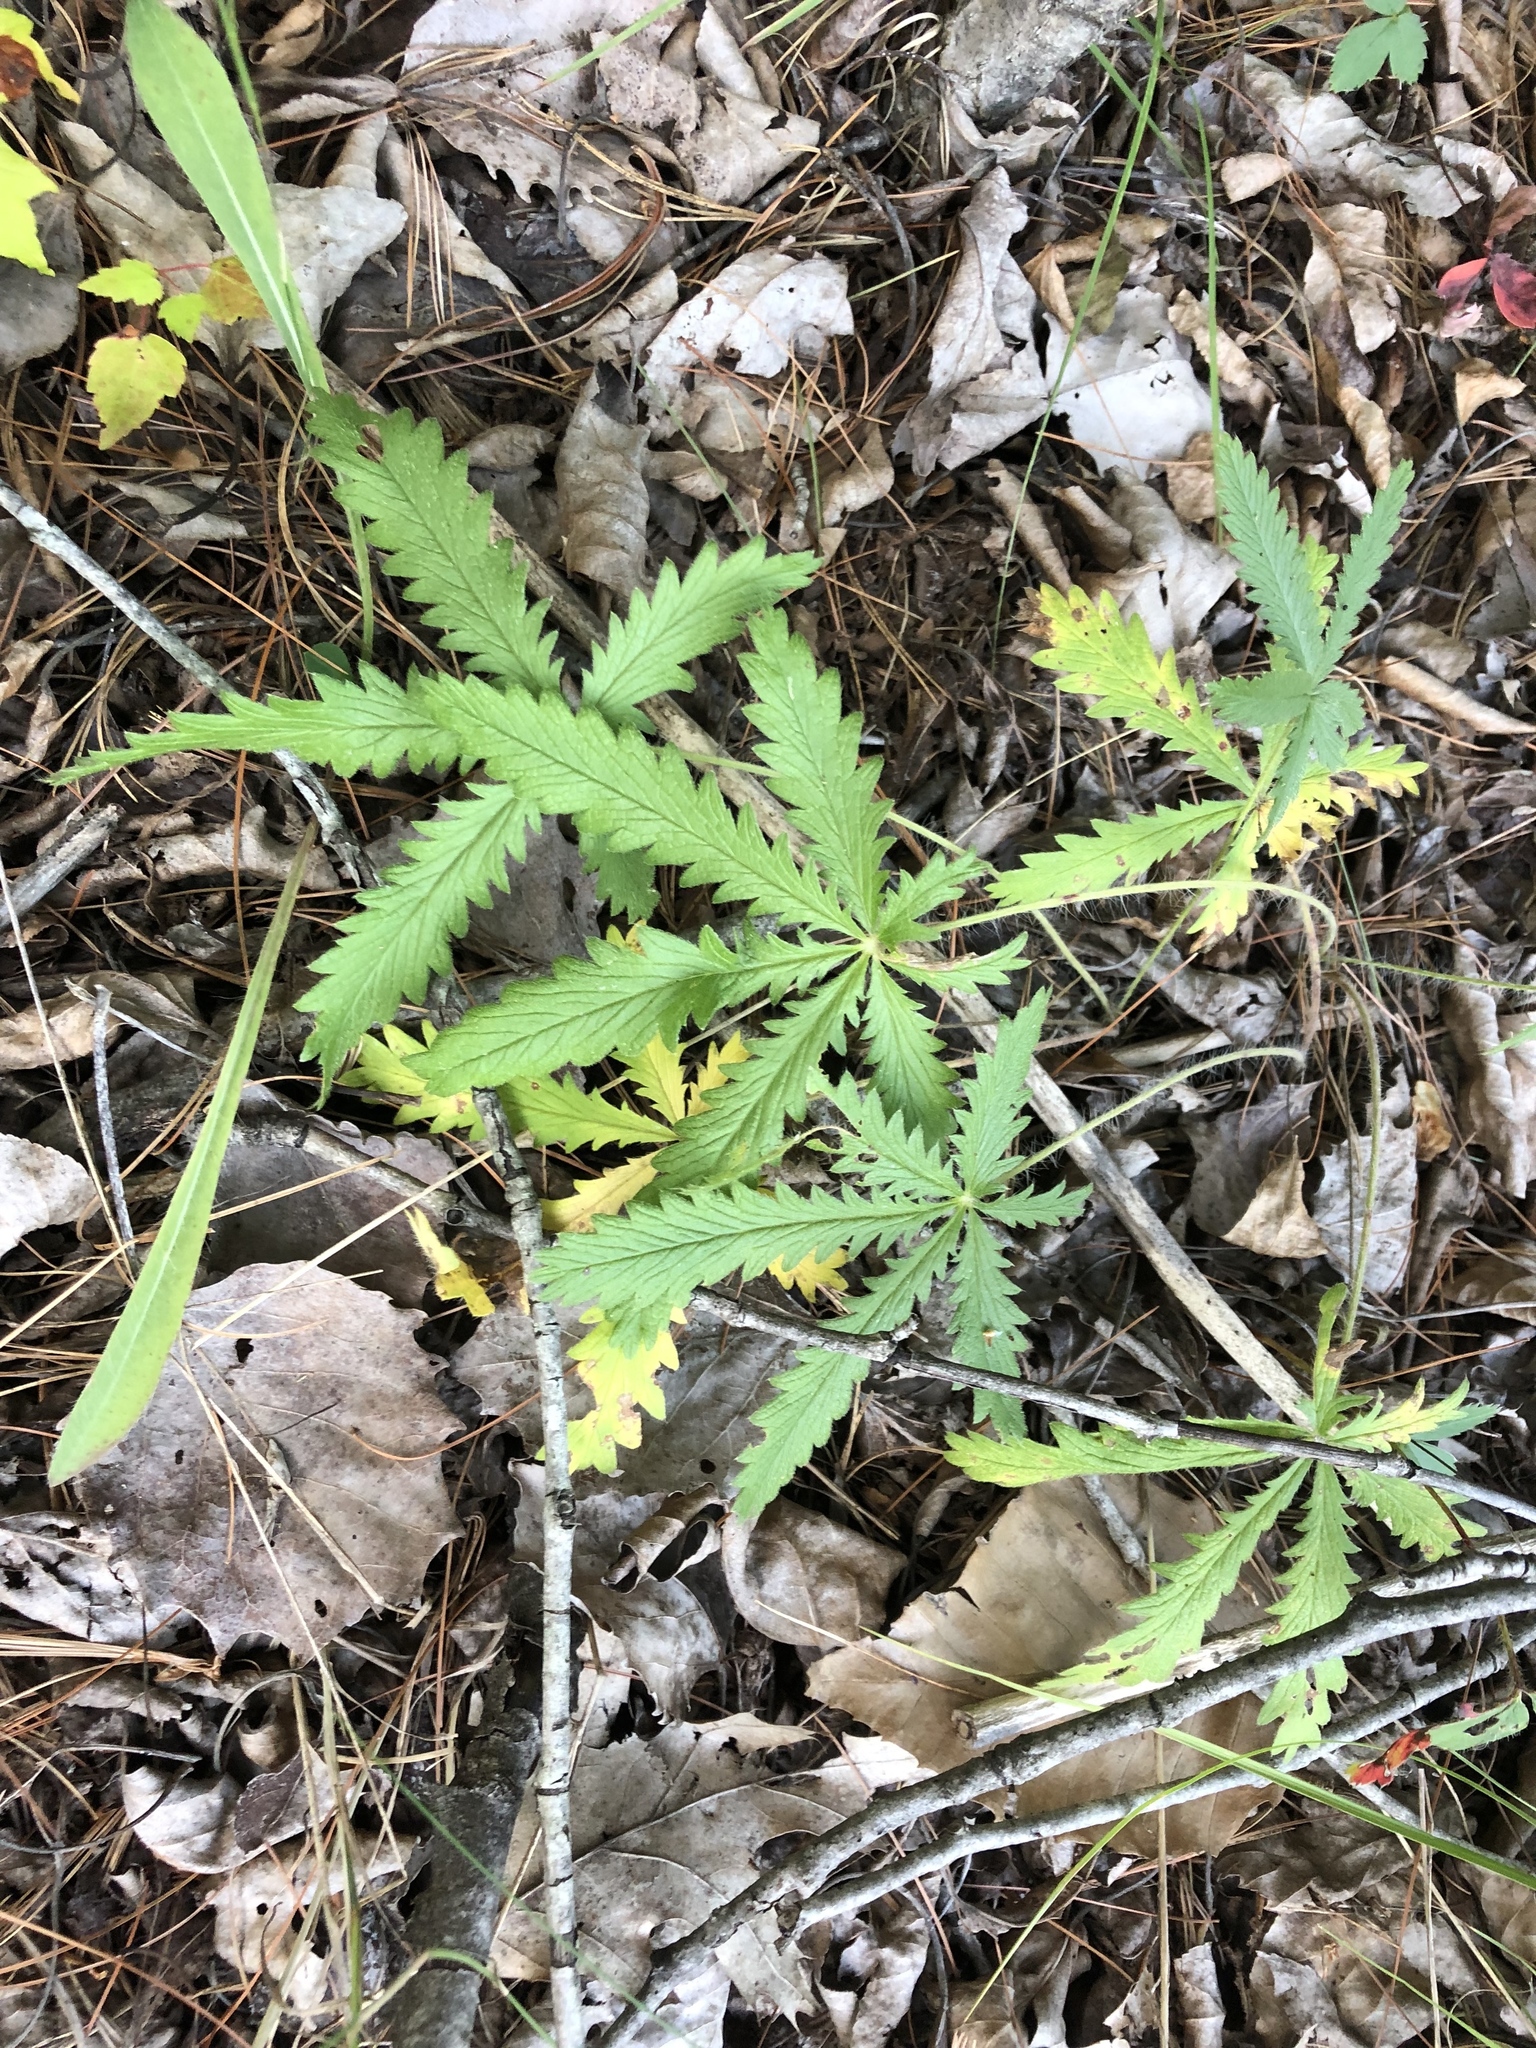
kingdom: Plantae
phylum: Tracheophyta
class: Magnoliopsida
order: Rosales
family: Rosaceae
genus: Potentilla
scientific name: Potentilla recta
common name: Sulphur cinquefoil
